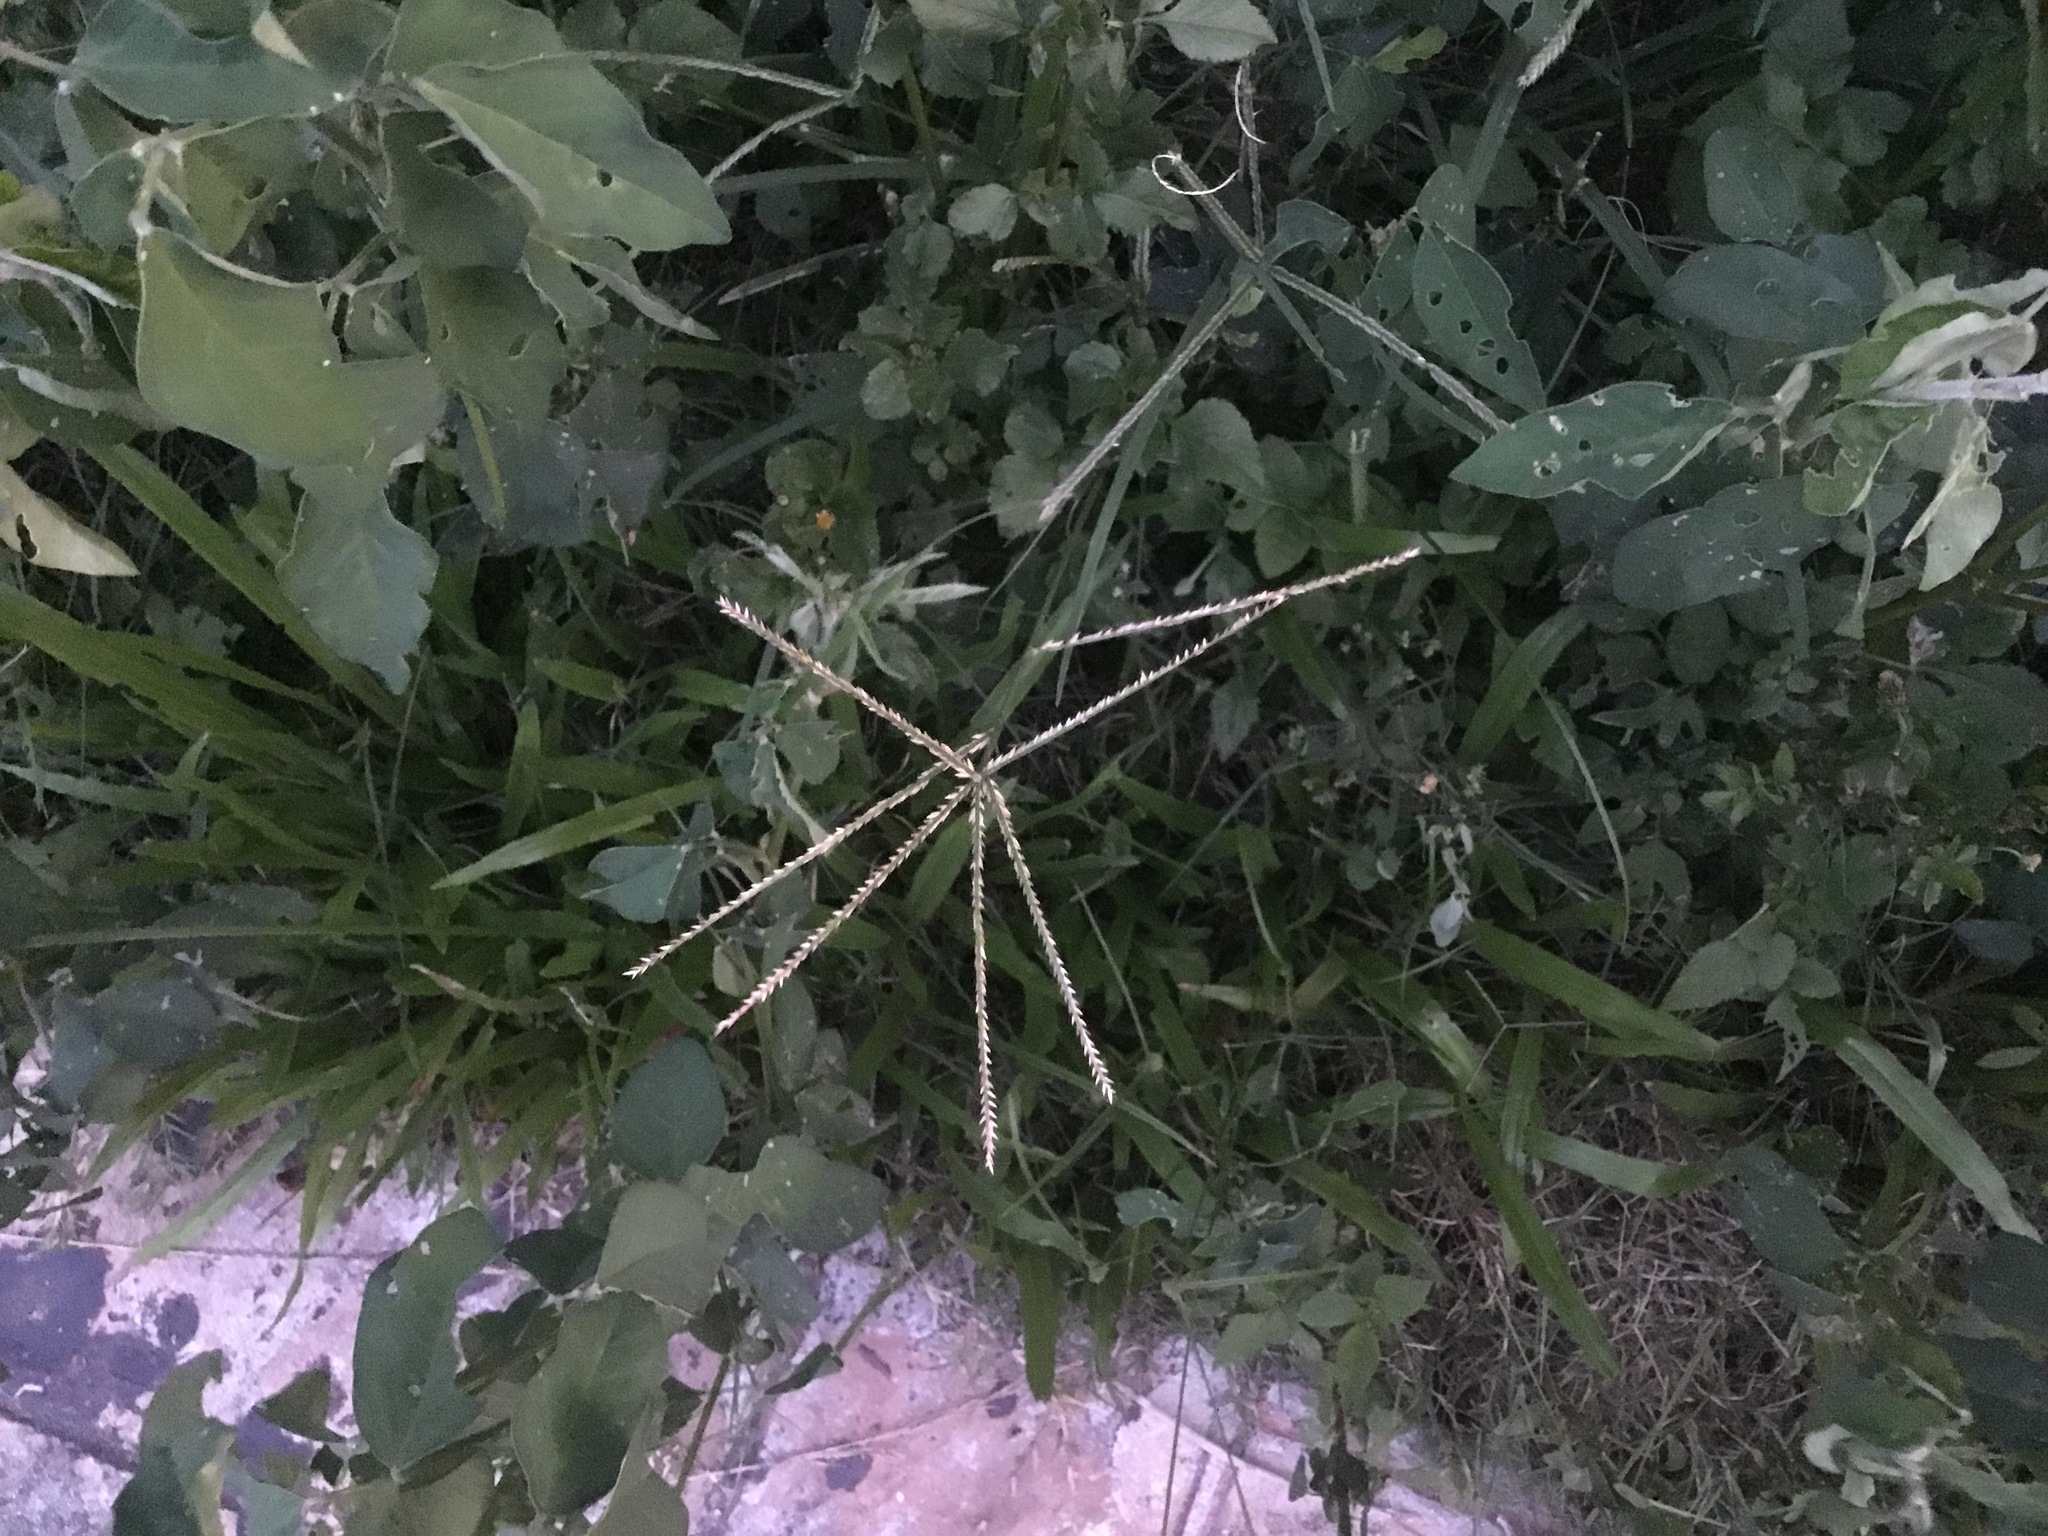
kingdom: Plantae
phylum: Tracheophyta
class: Liliopsida
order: Poales
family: Poaceae
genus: Eleusine
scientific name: Eleusine indica
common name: Yard-grass
